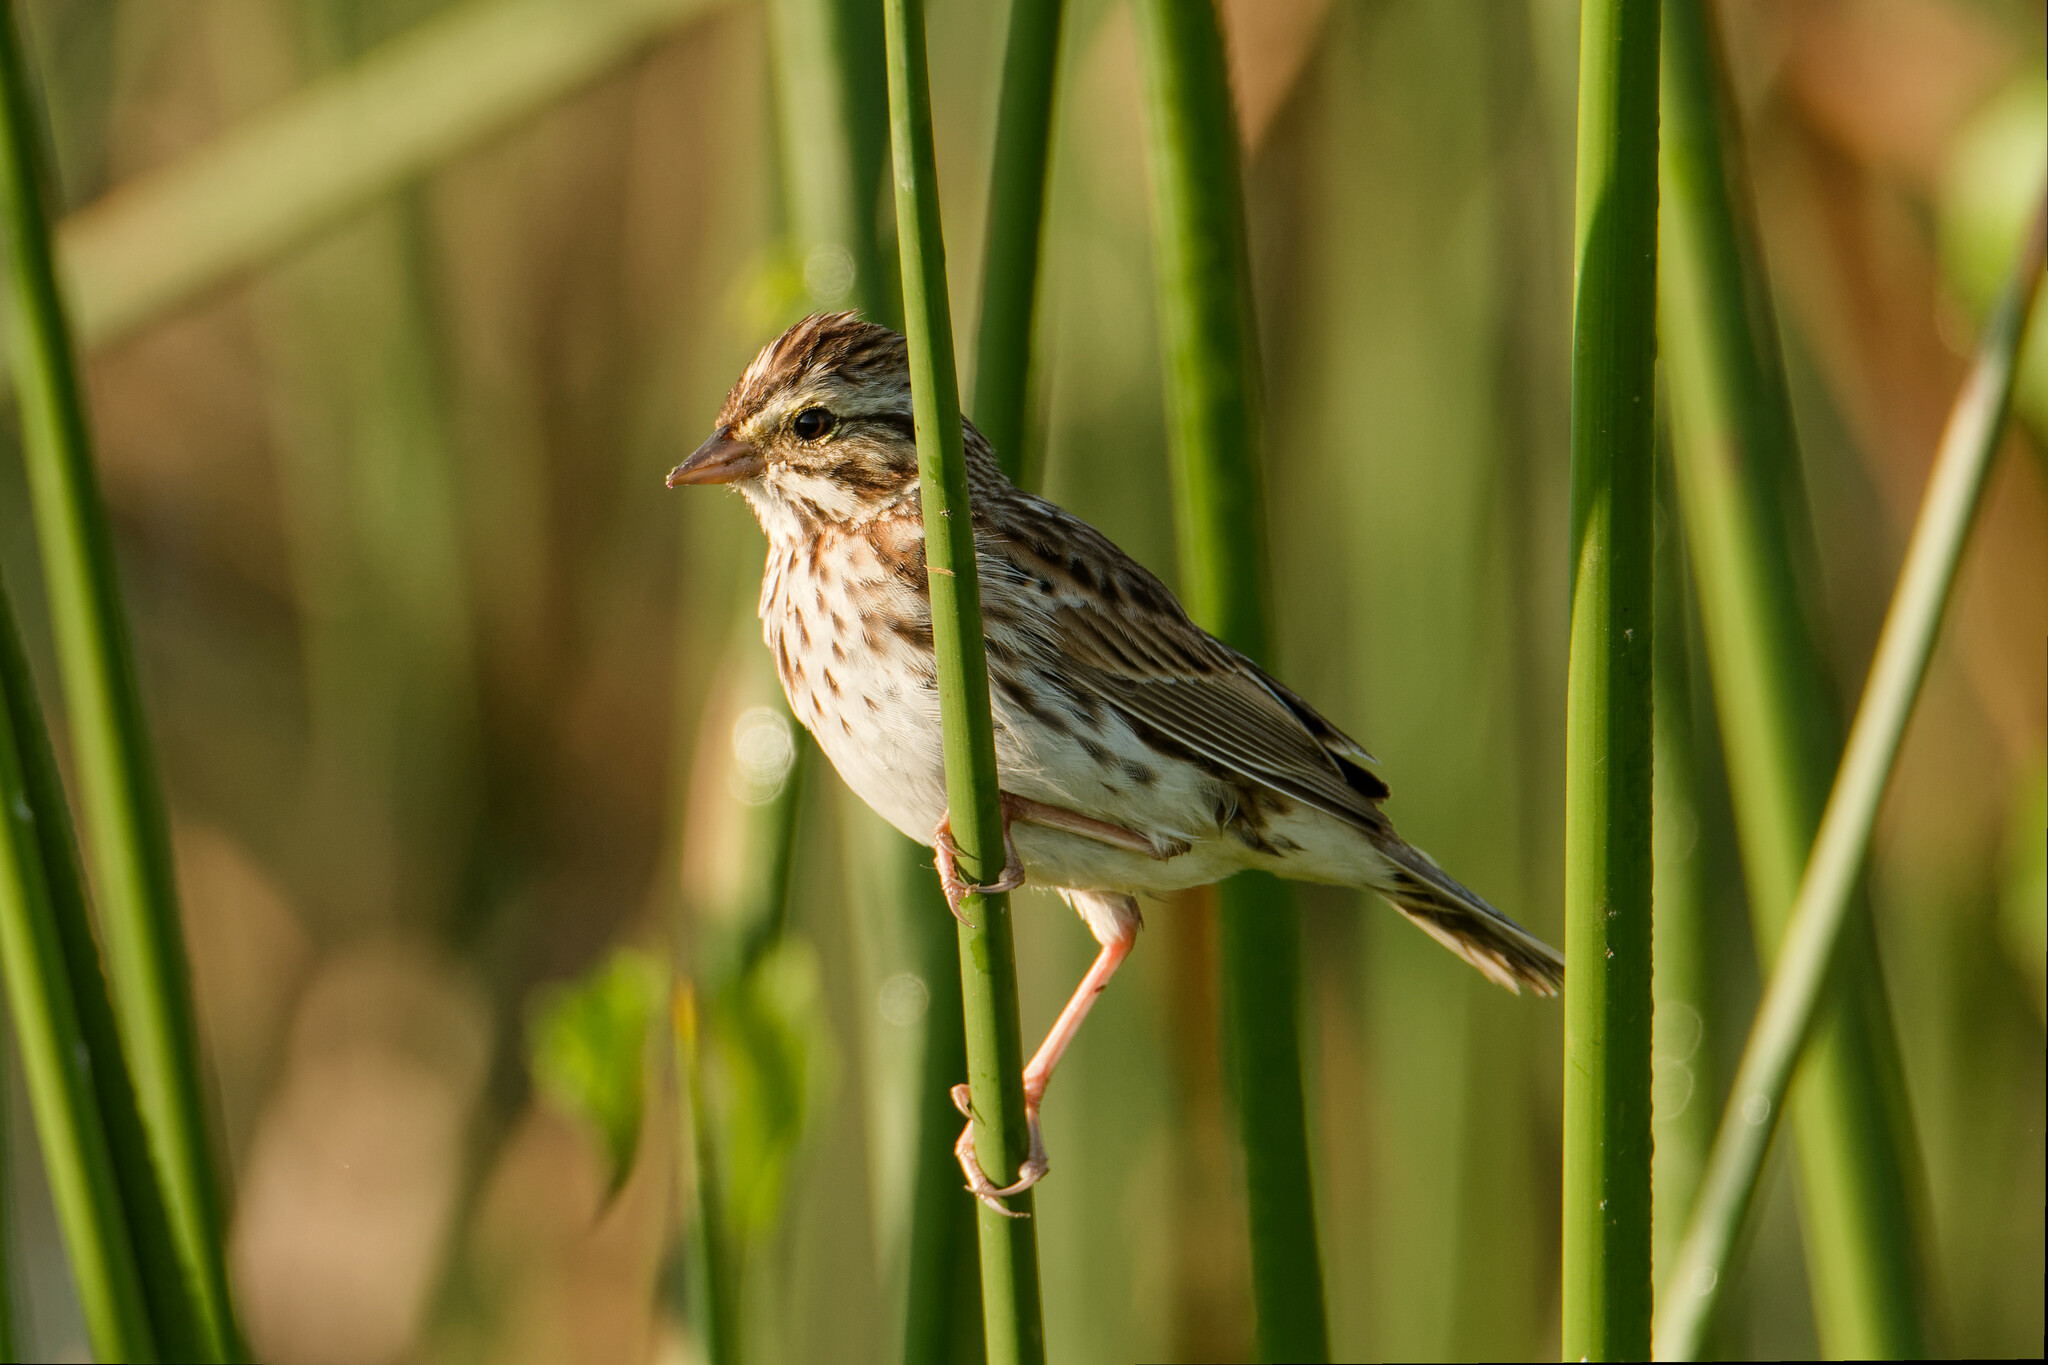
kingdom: Animalia
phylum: Chordata
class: Aves
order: Passeriformes
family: Passerellidae
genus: Passerculus
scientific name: Passerculus sandwichensis
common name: Savannah sparrow
